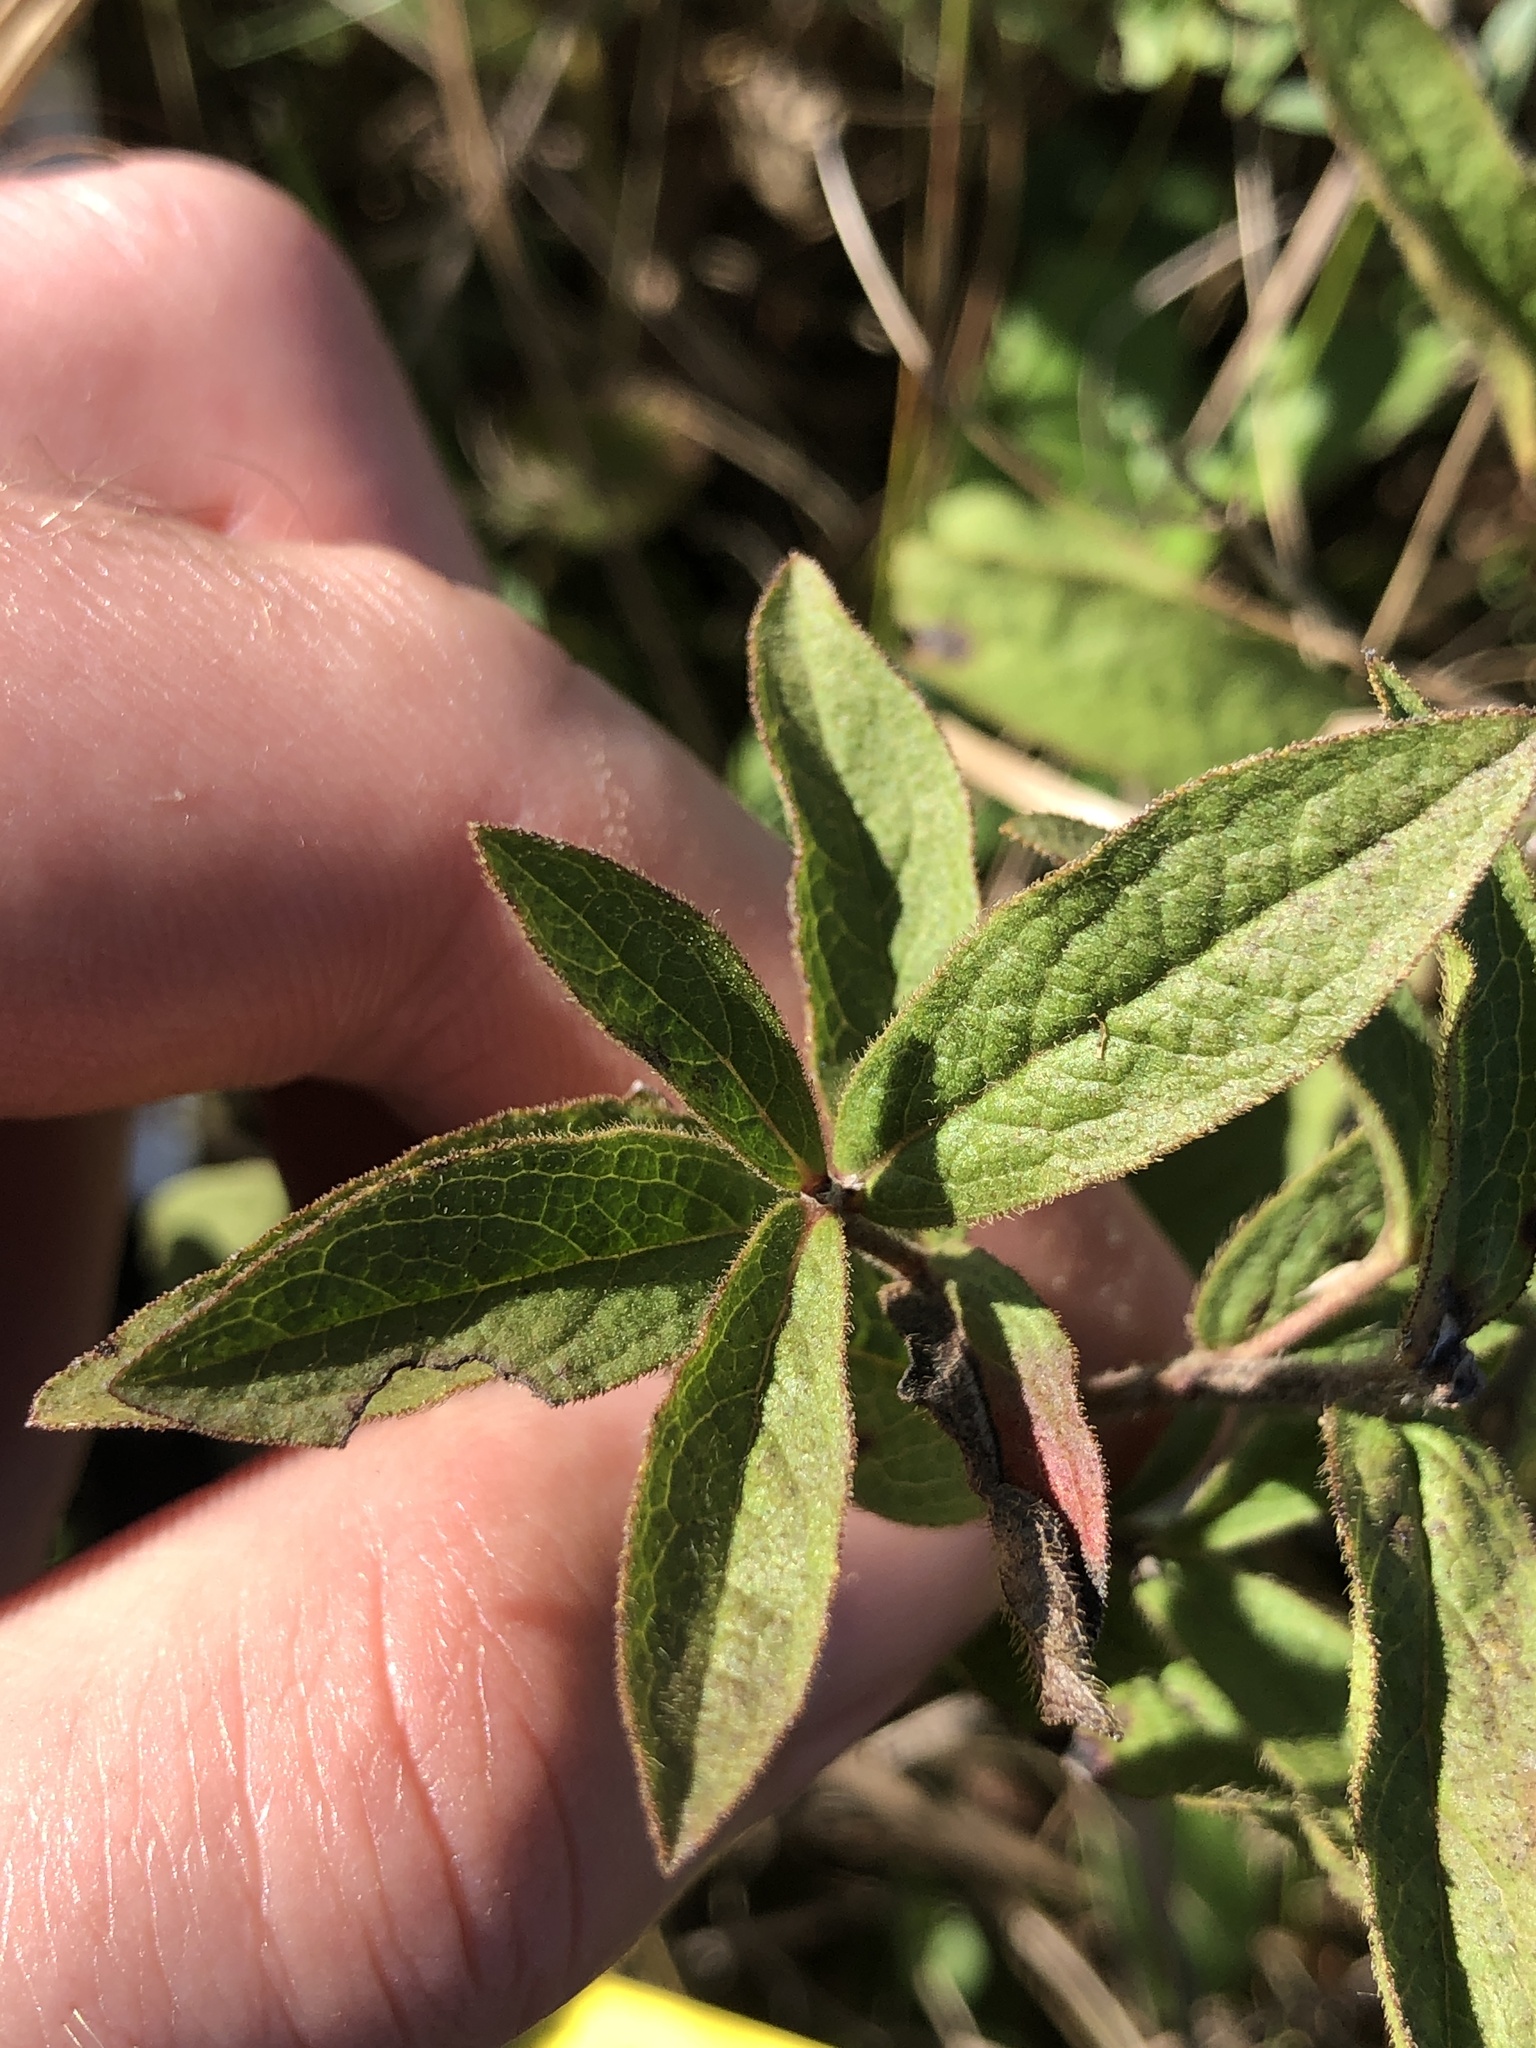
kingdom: Plantae
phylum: Tracheophyta
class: Magnoliopsida
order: Asterales
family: Asteraceae
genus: Pentanema
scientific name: Pentanema hirtum
